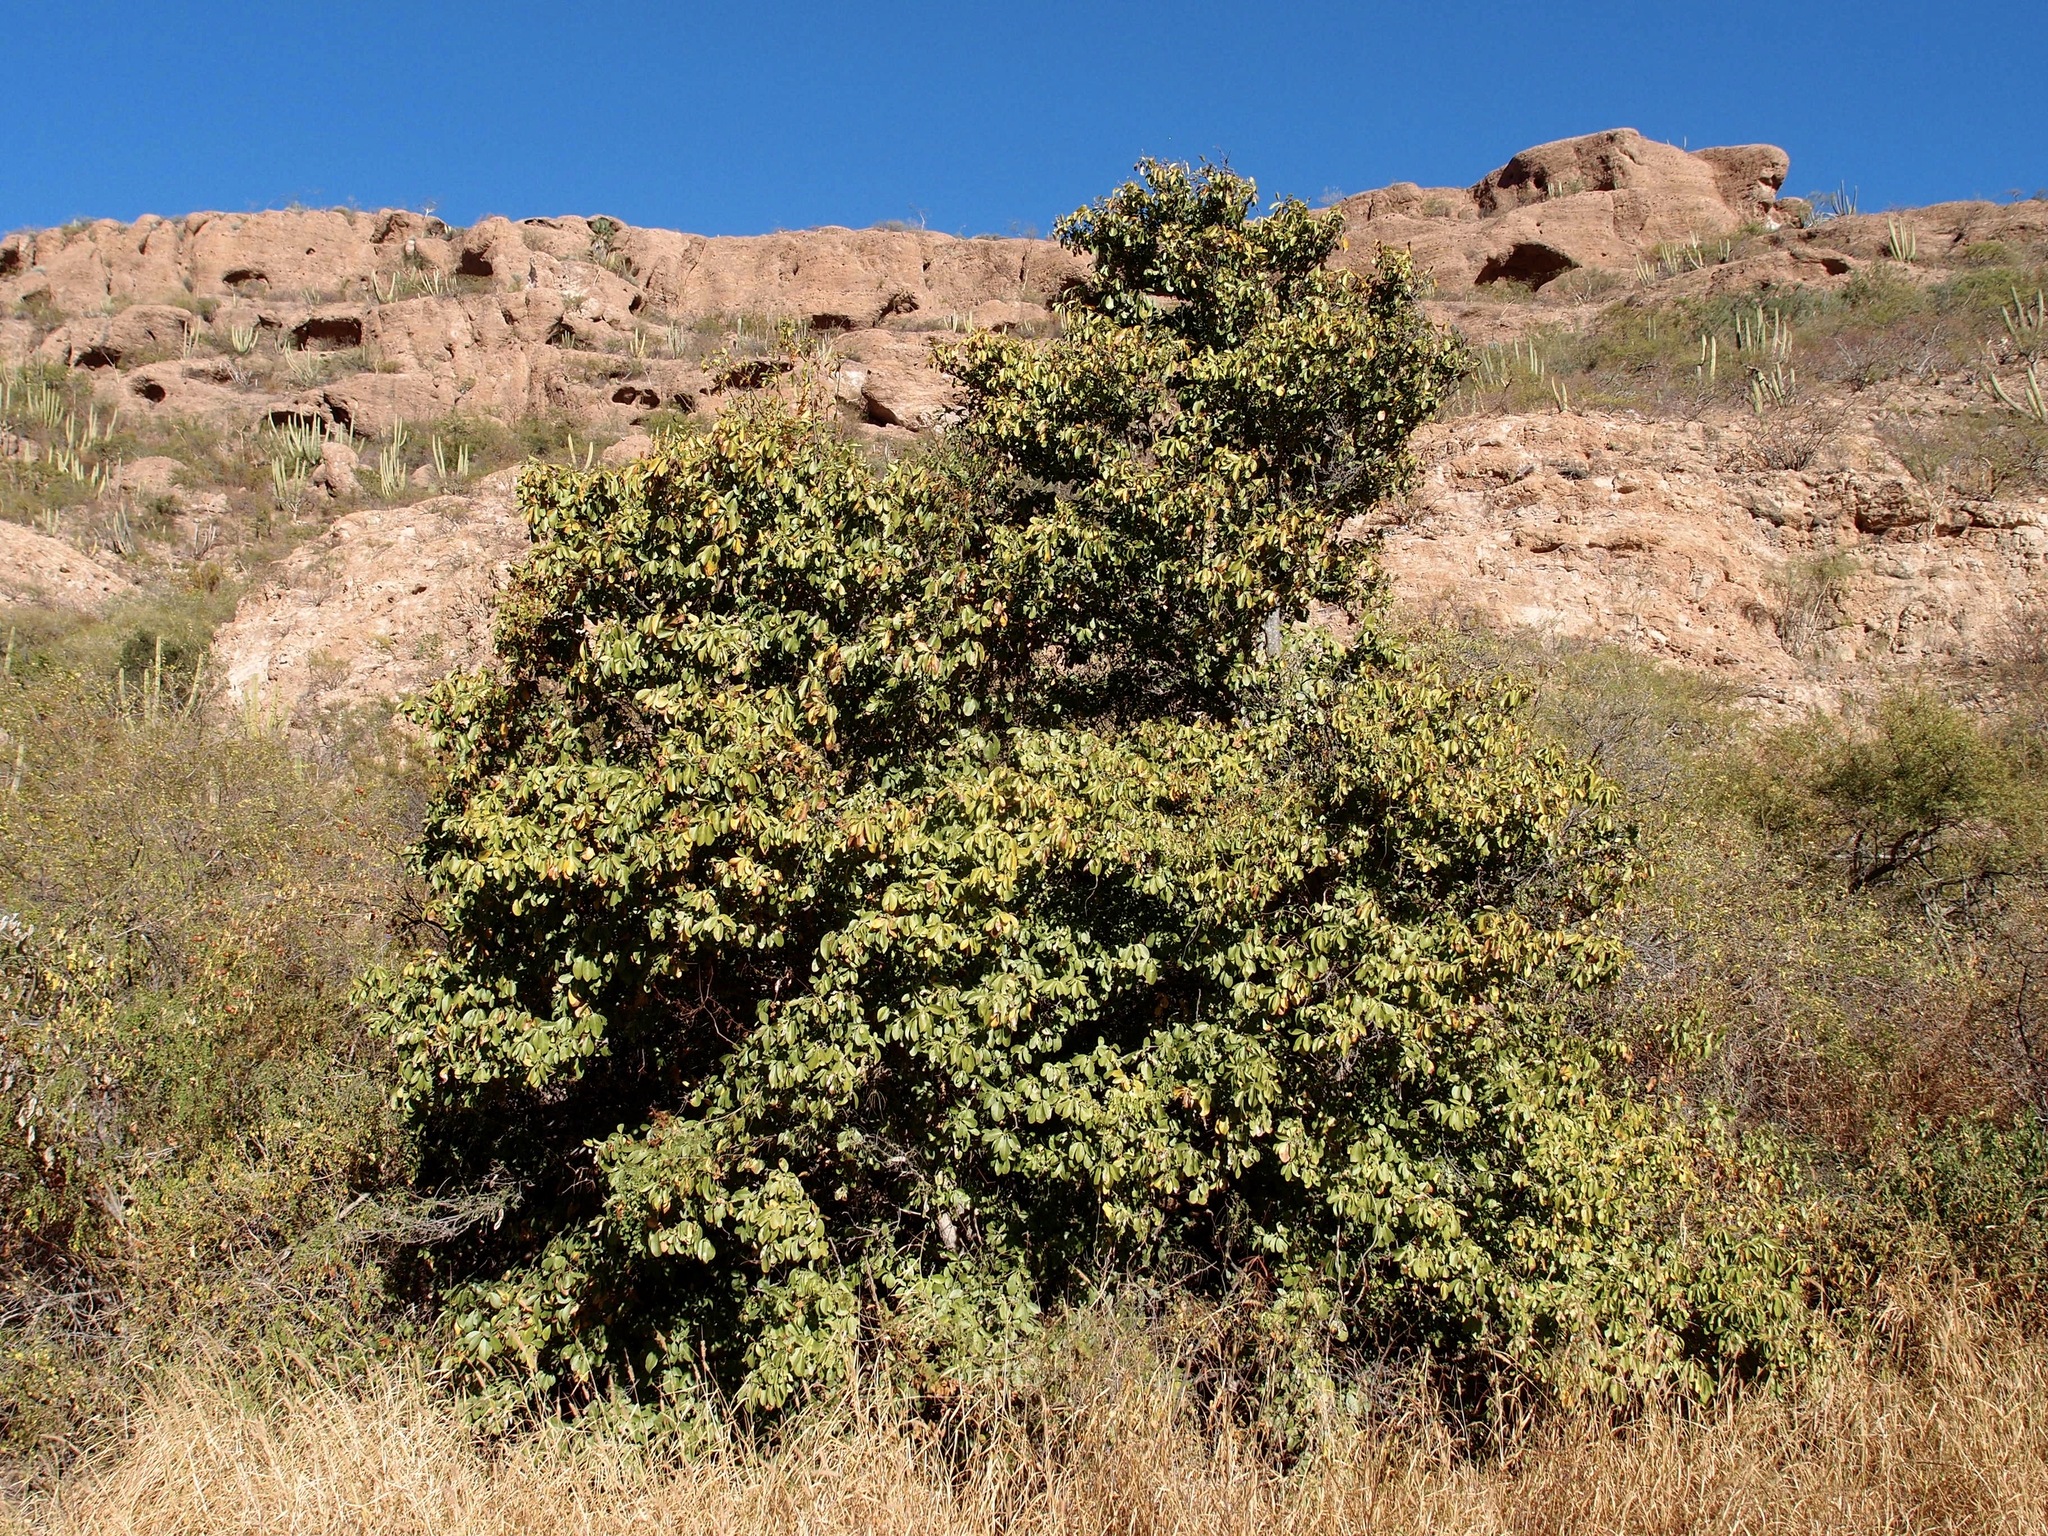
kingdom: Plantae
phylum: Tracheophyta
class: Magnoliopsida
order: Boraginales
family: Cordiaceae
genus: Cordia
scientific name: Cordia sonorae
